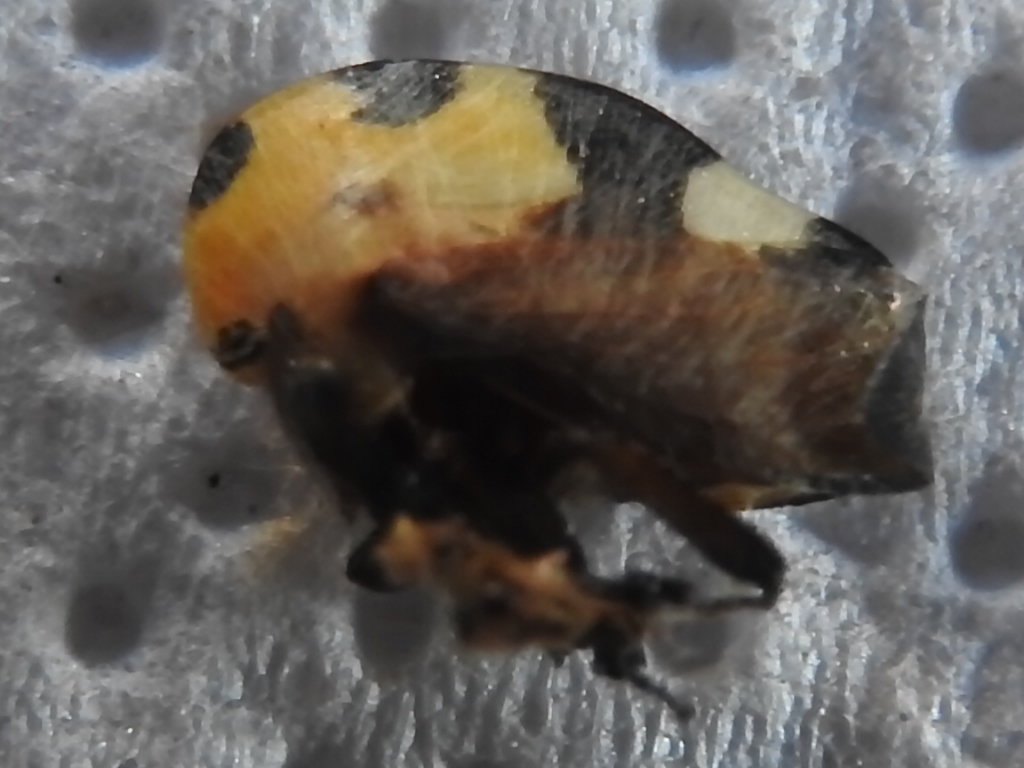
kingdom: Animalia
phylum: Arthropoda
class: Insecta
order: Hemiptera
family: Membracidae
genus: Membracis
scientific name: Membracis mexicana
